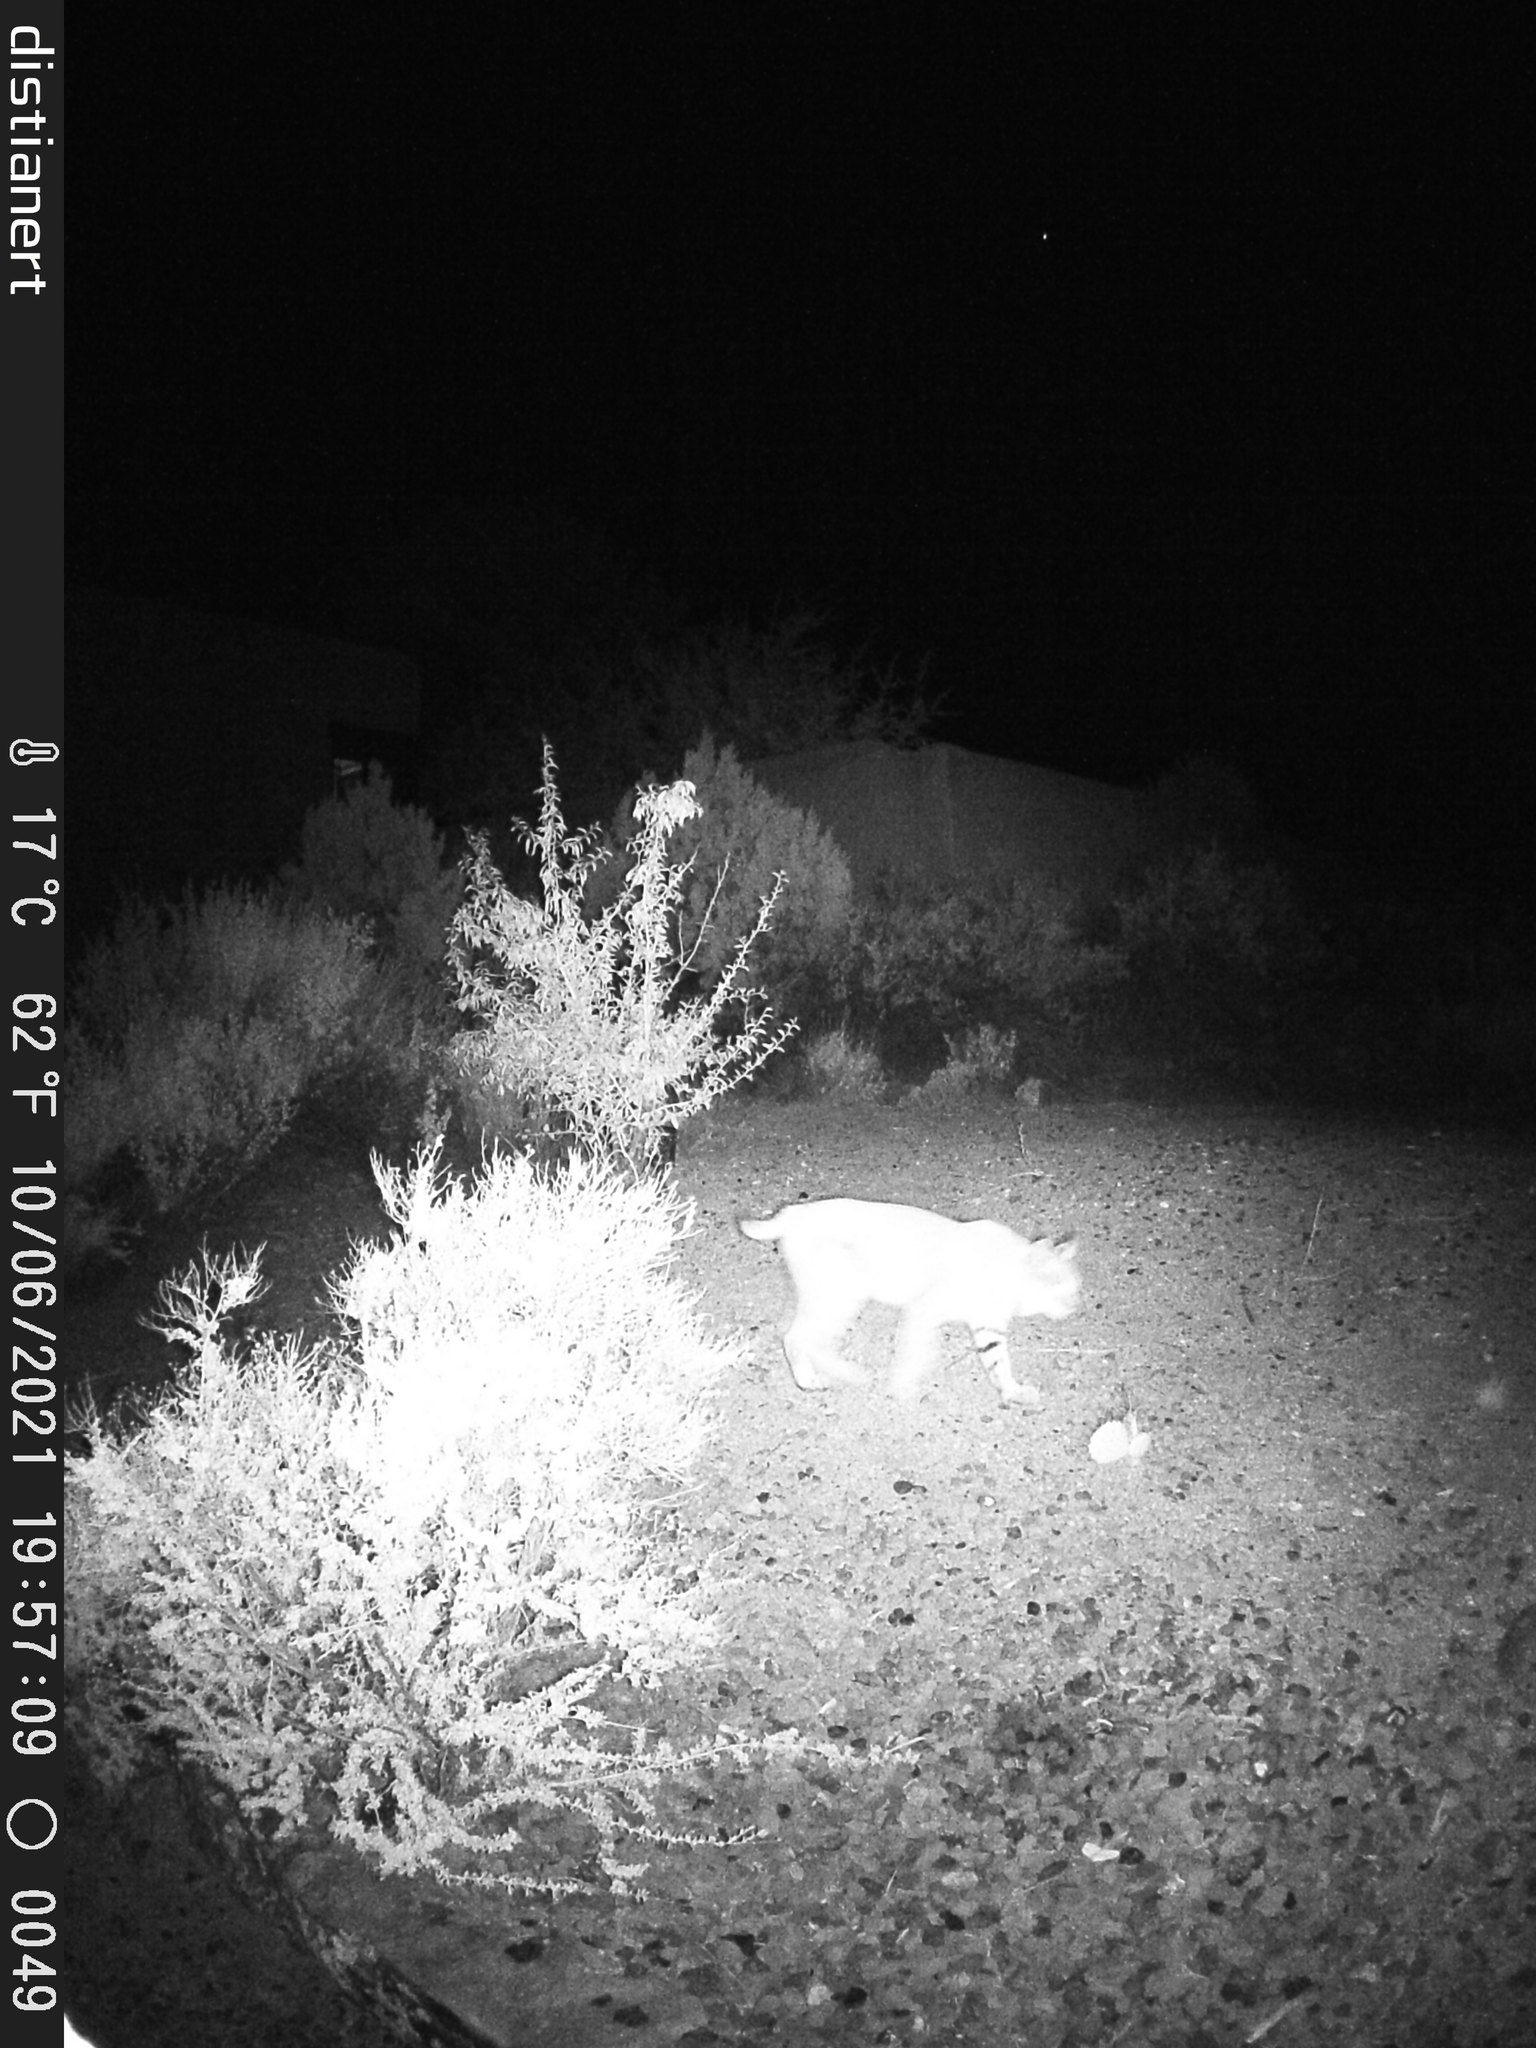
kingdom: Animalia
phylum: Chordata
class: Mammalia
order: Carnivora
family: Felidae
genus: Lynx
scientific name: Lynx rufus
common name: Bobcat
